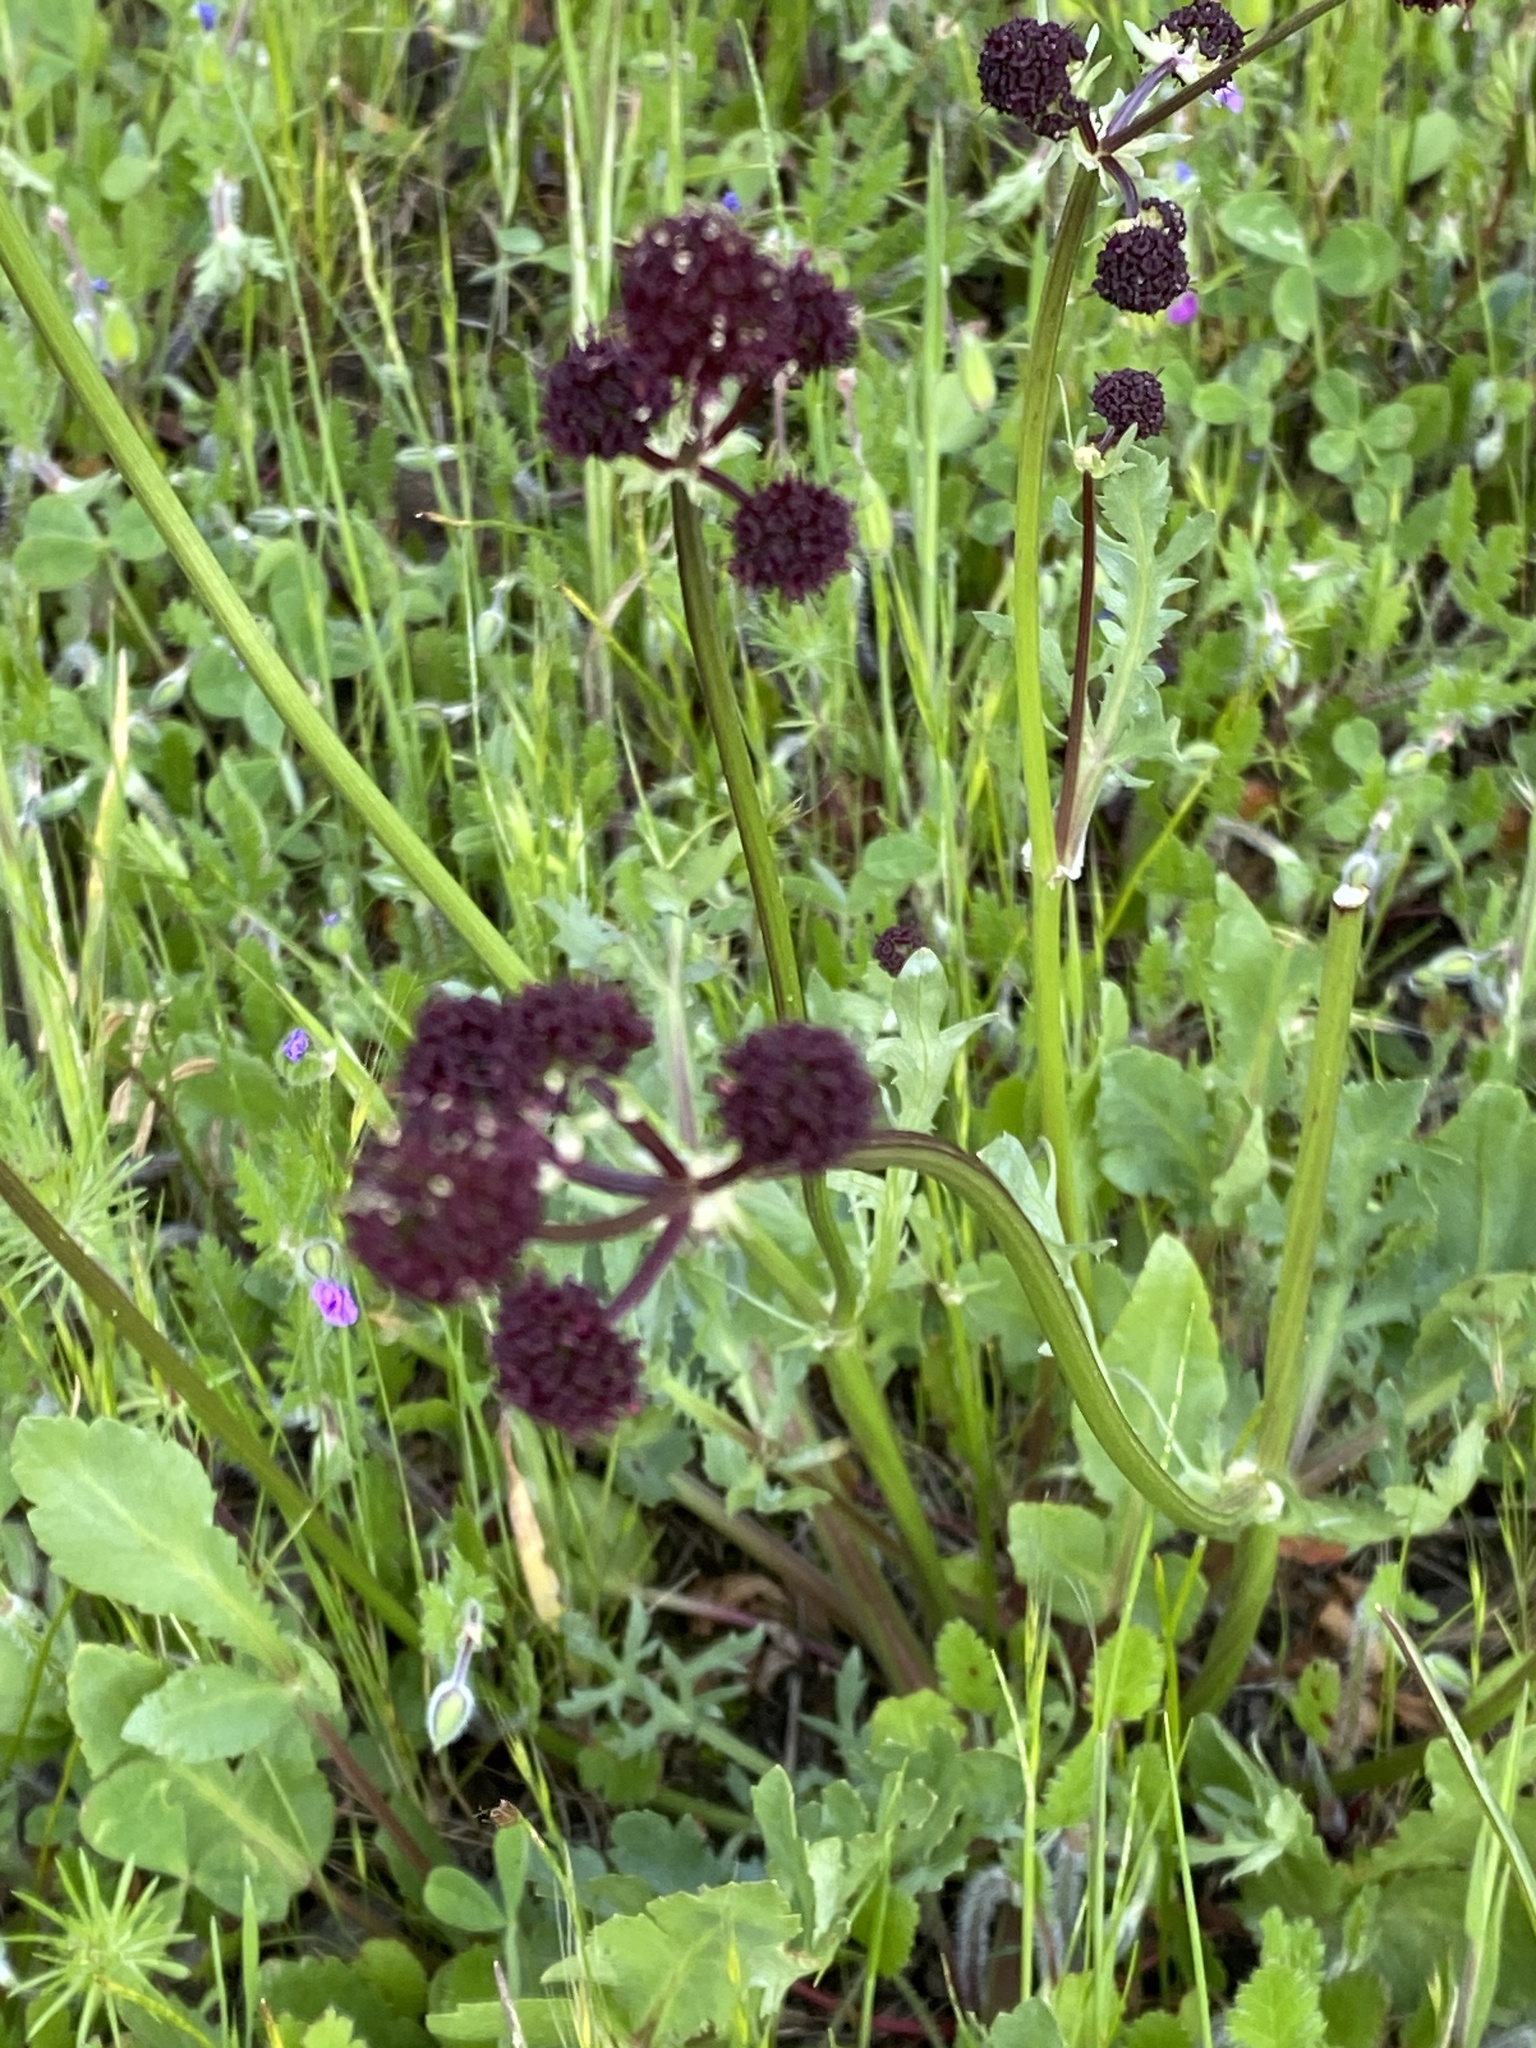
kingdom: Plantae
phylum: Tracheophyta
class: Magnoliopsida
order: Apiales
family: Apiaceae
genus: Sanicula
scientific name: Sanicula bipinnatifida
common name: Shoe-buttons
